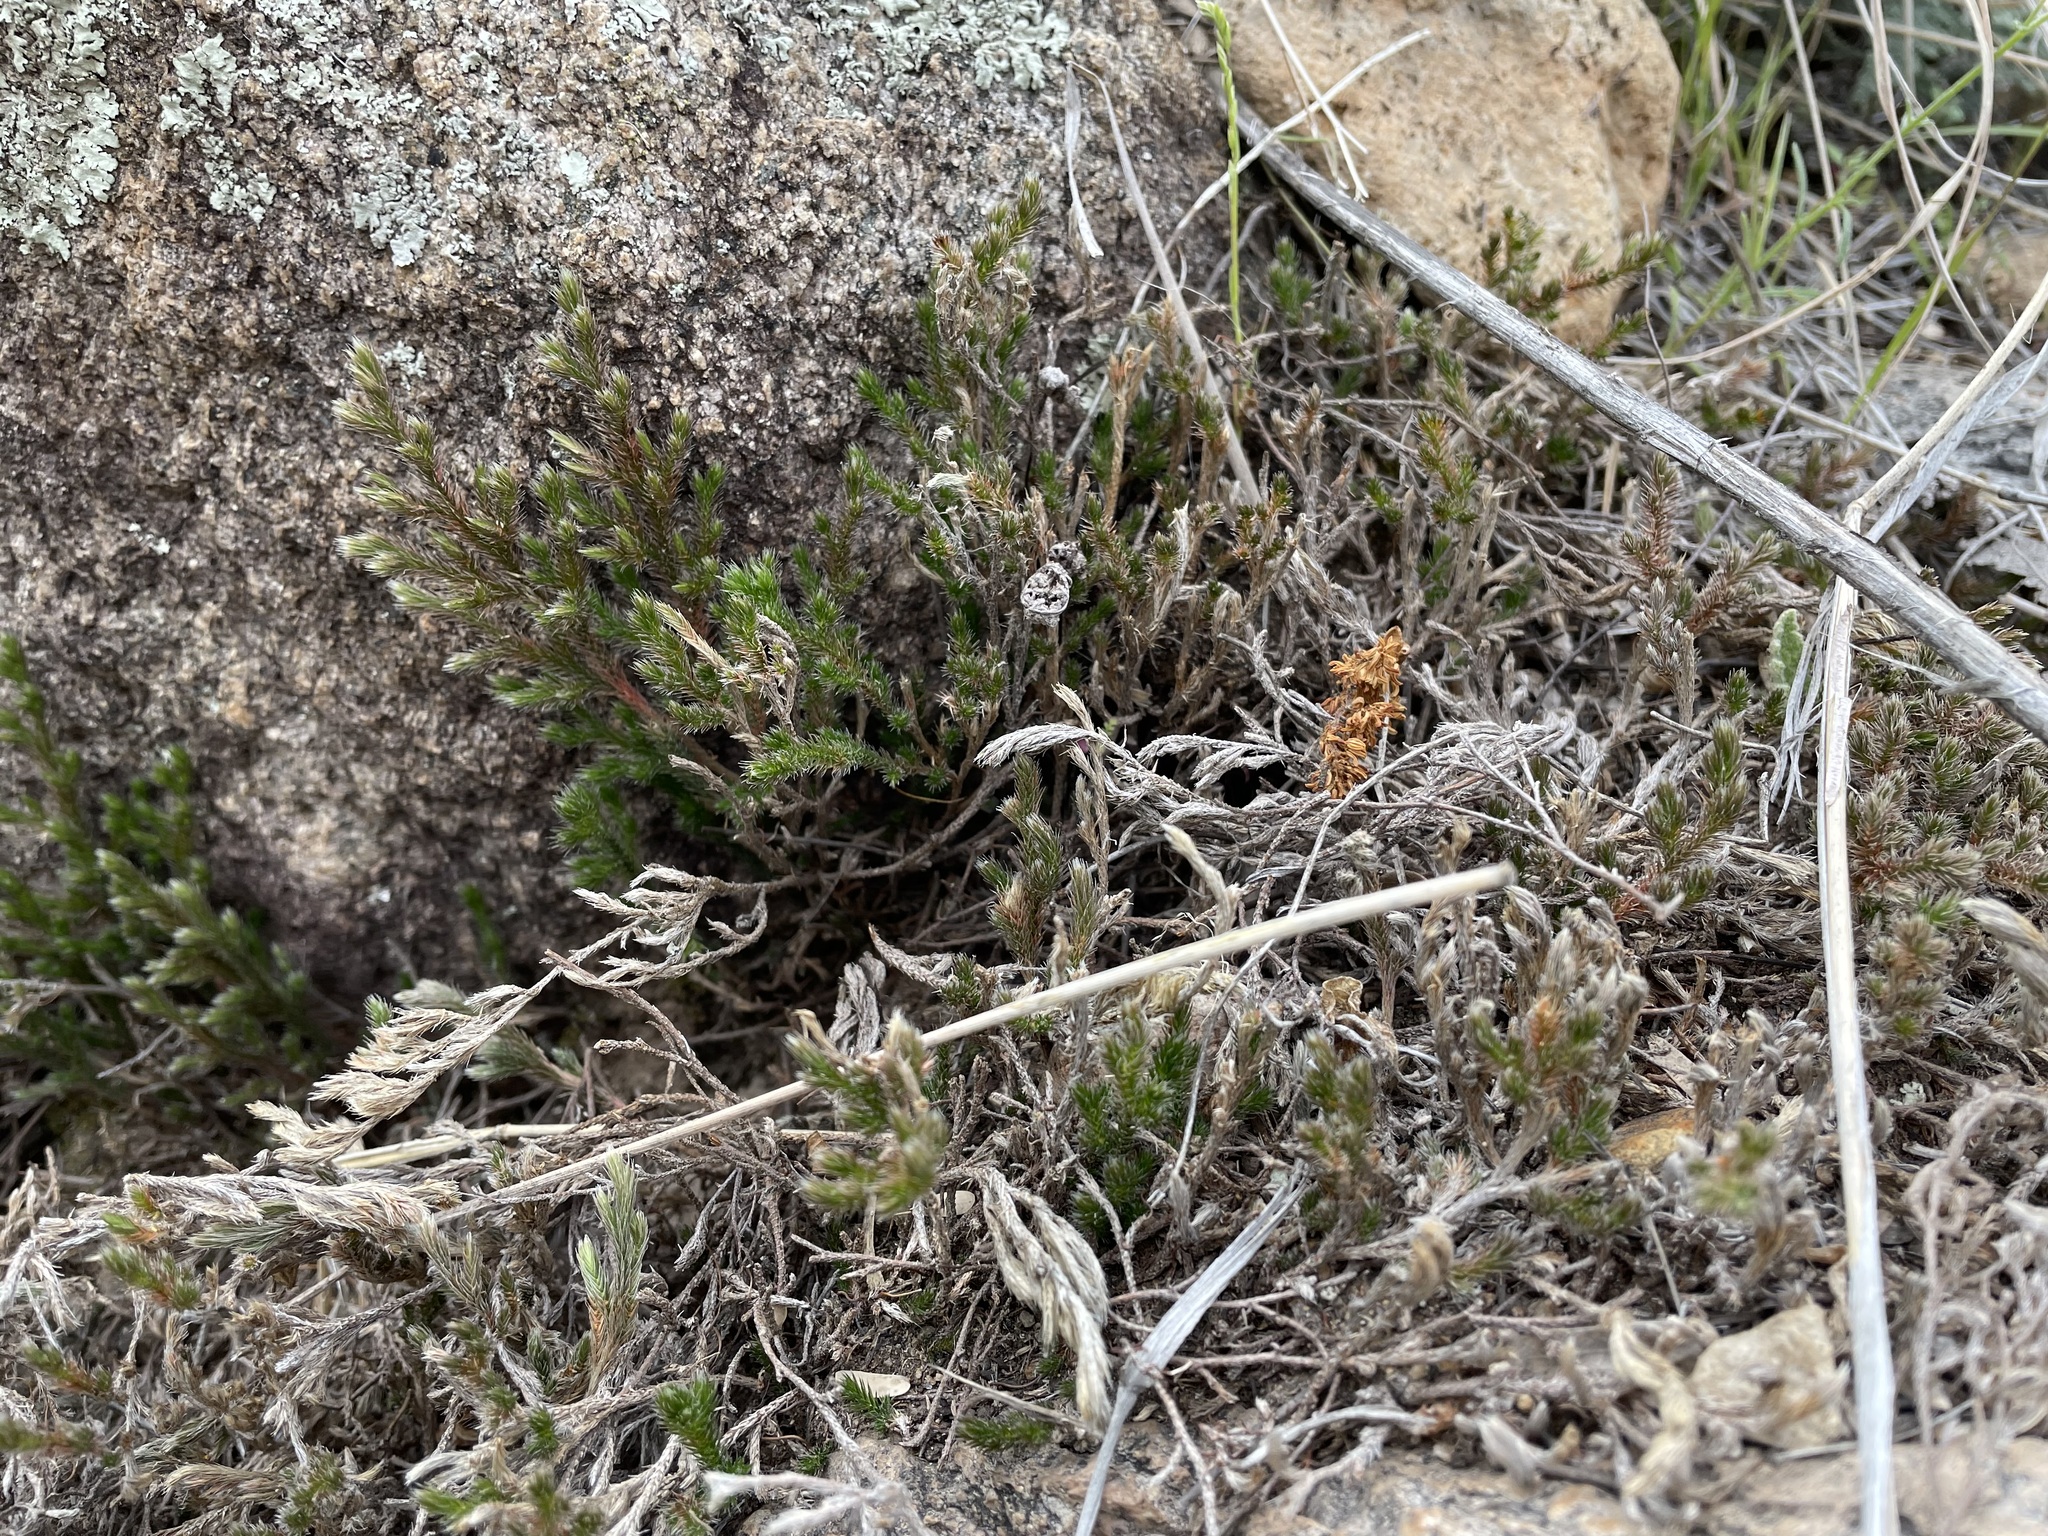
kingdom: Plantae
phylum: Tracheophyta
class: Lycopodiopsida
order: Selaginellales
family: Selaginellaceae
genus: Selaginella
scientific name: Selaginella rupincola
